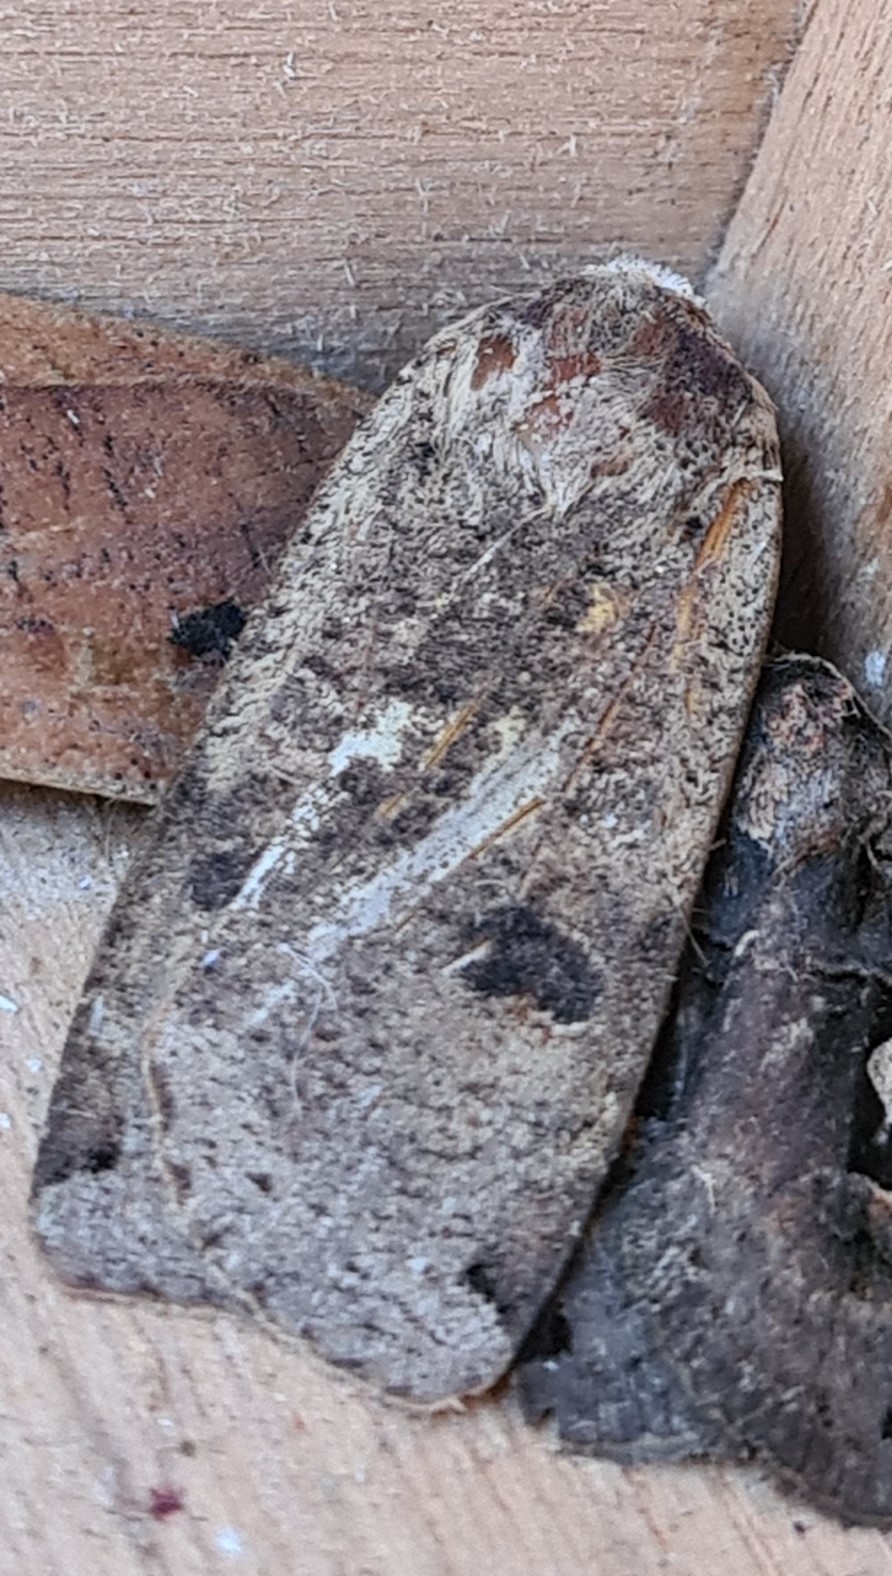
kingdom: Animalia
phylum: Arthropoda
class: Insecta
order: Lepidoptera
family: Noctuidae
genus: Noctua
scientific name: Noctua pronuba
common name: Large yellow underwing
